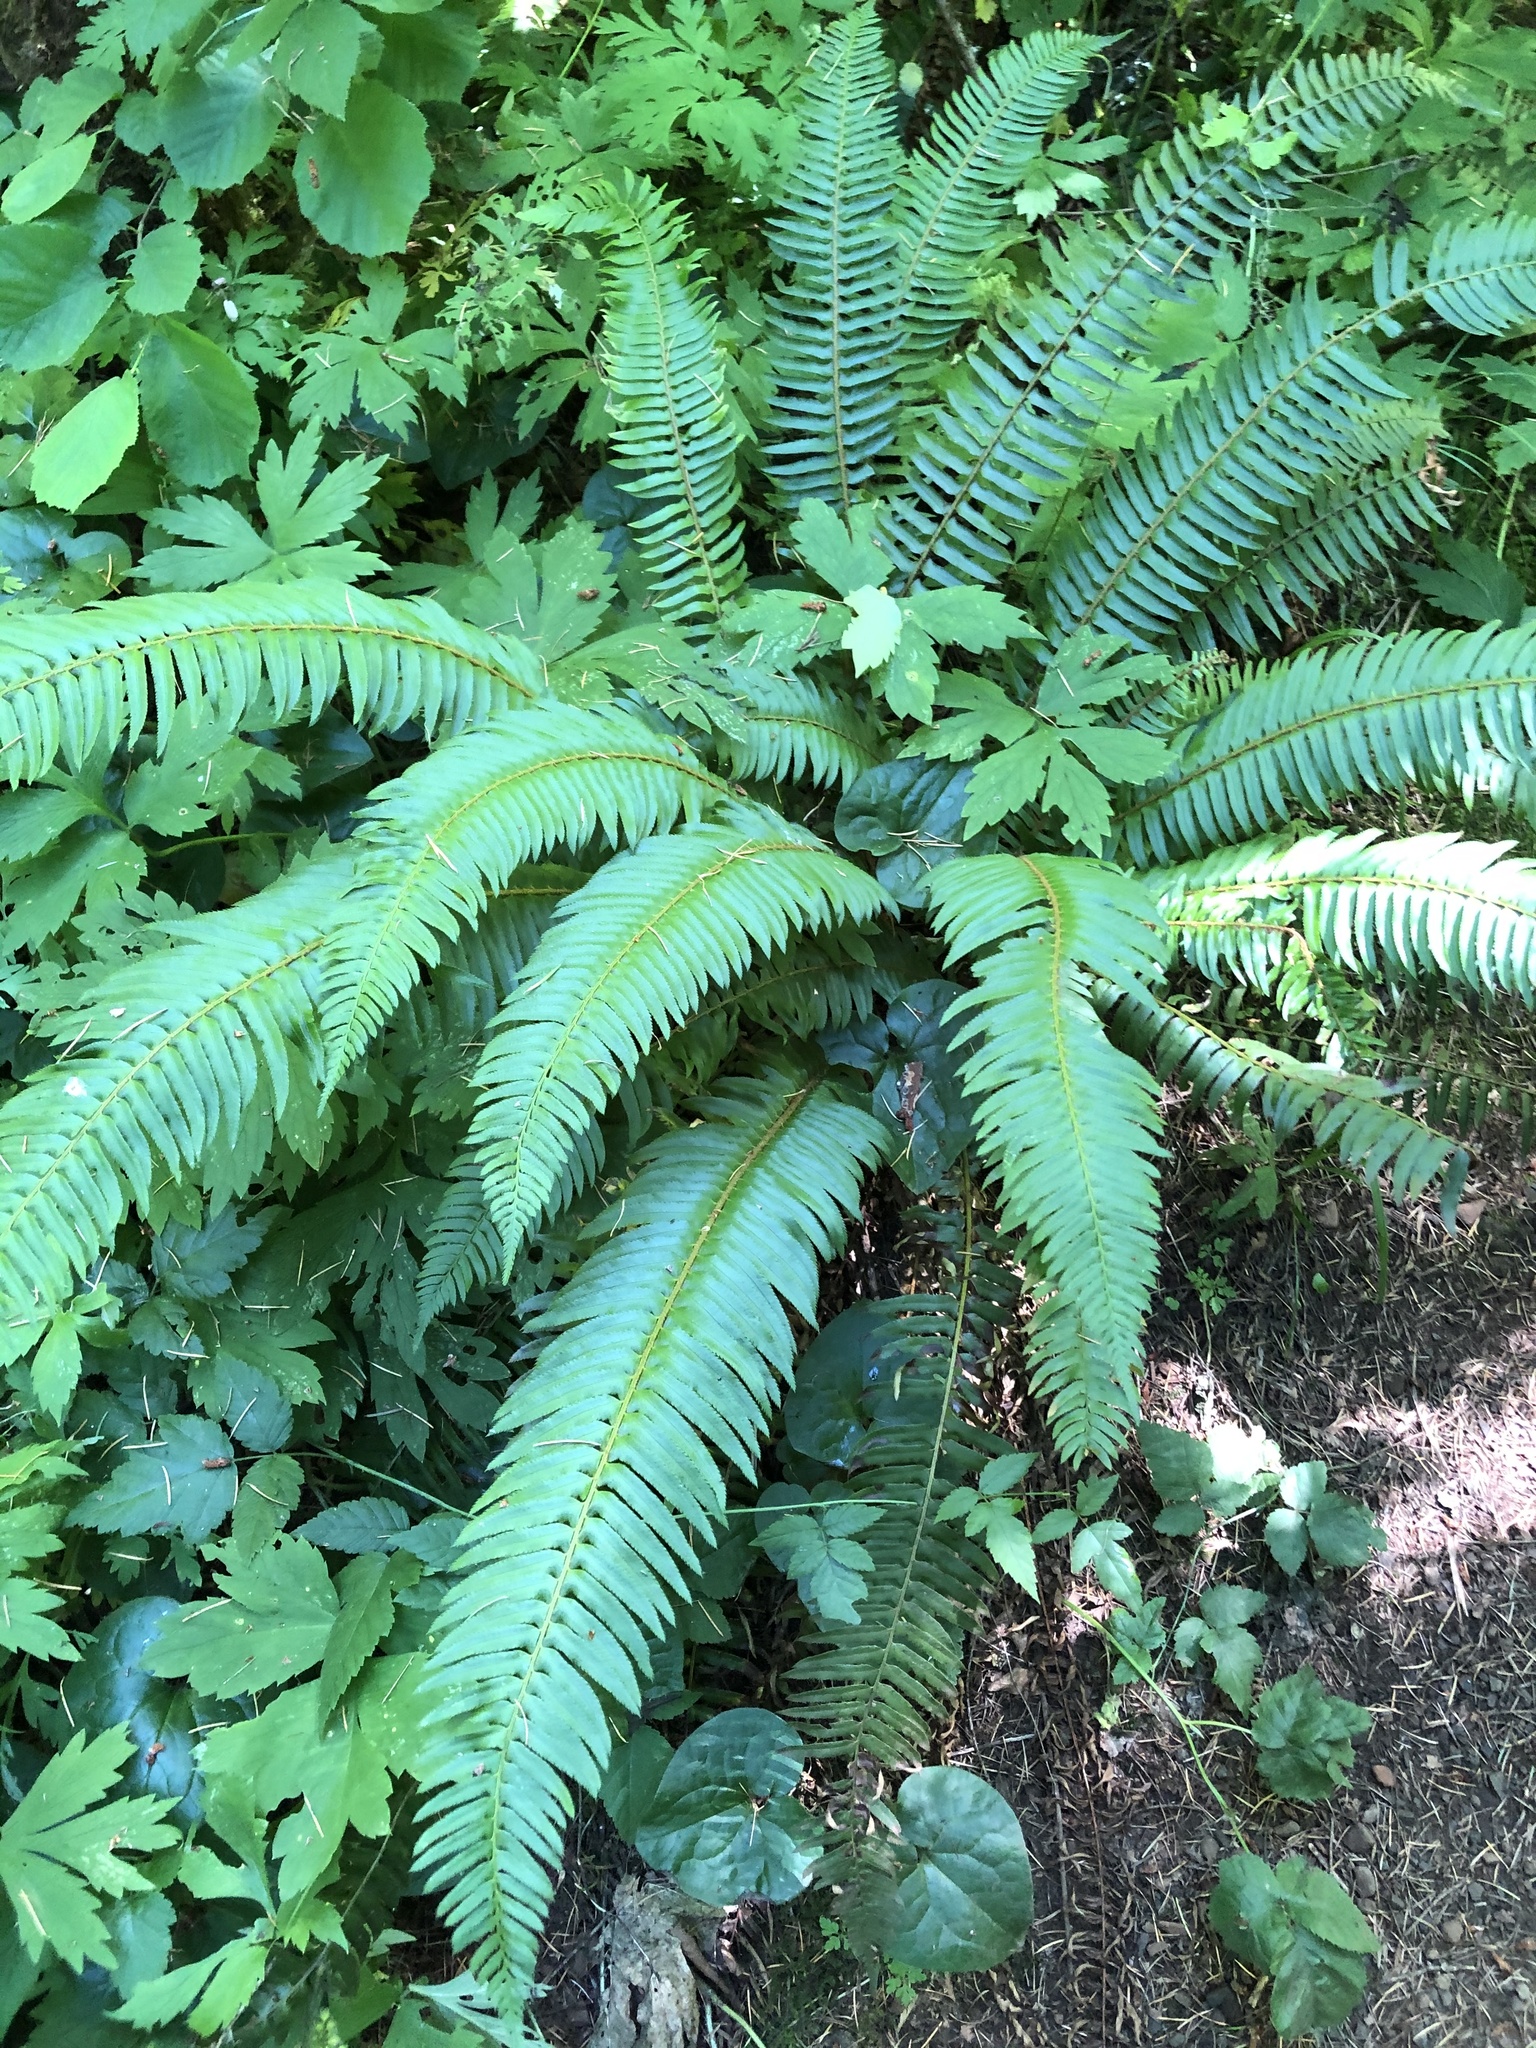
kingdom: Plantae
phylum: Tracheophyta
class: Polypodiopsida
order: Polypodiales
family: Dryopteridaceae
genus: Polystichum
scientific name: Polystichum munitum
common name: Western sword-fern
